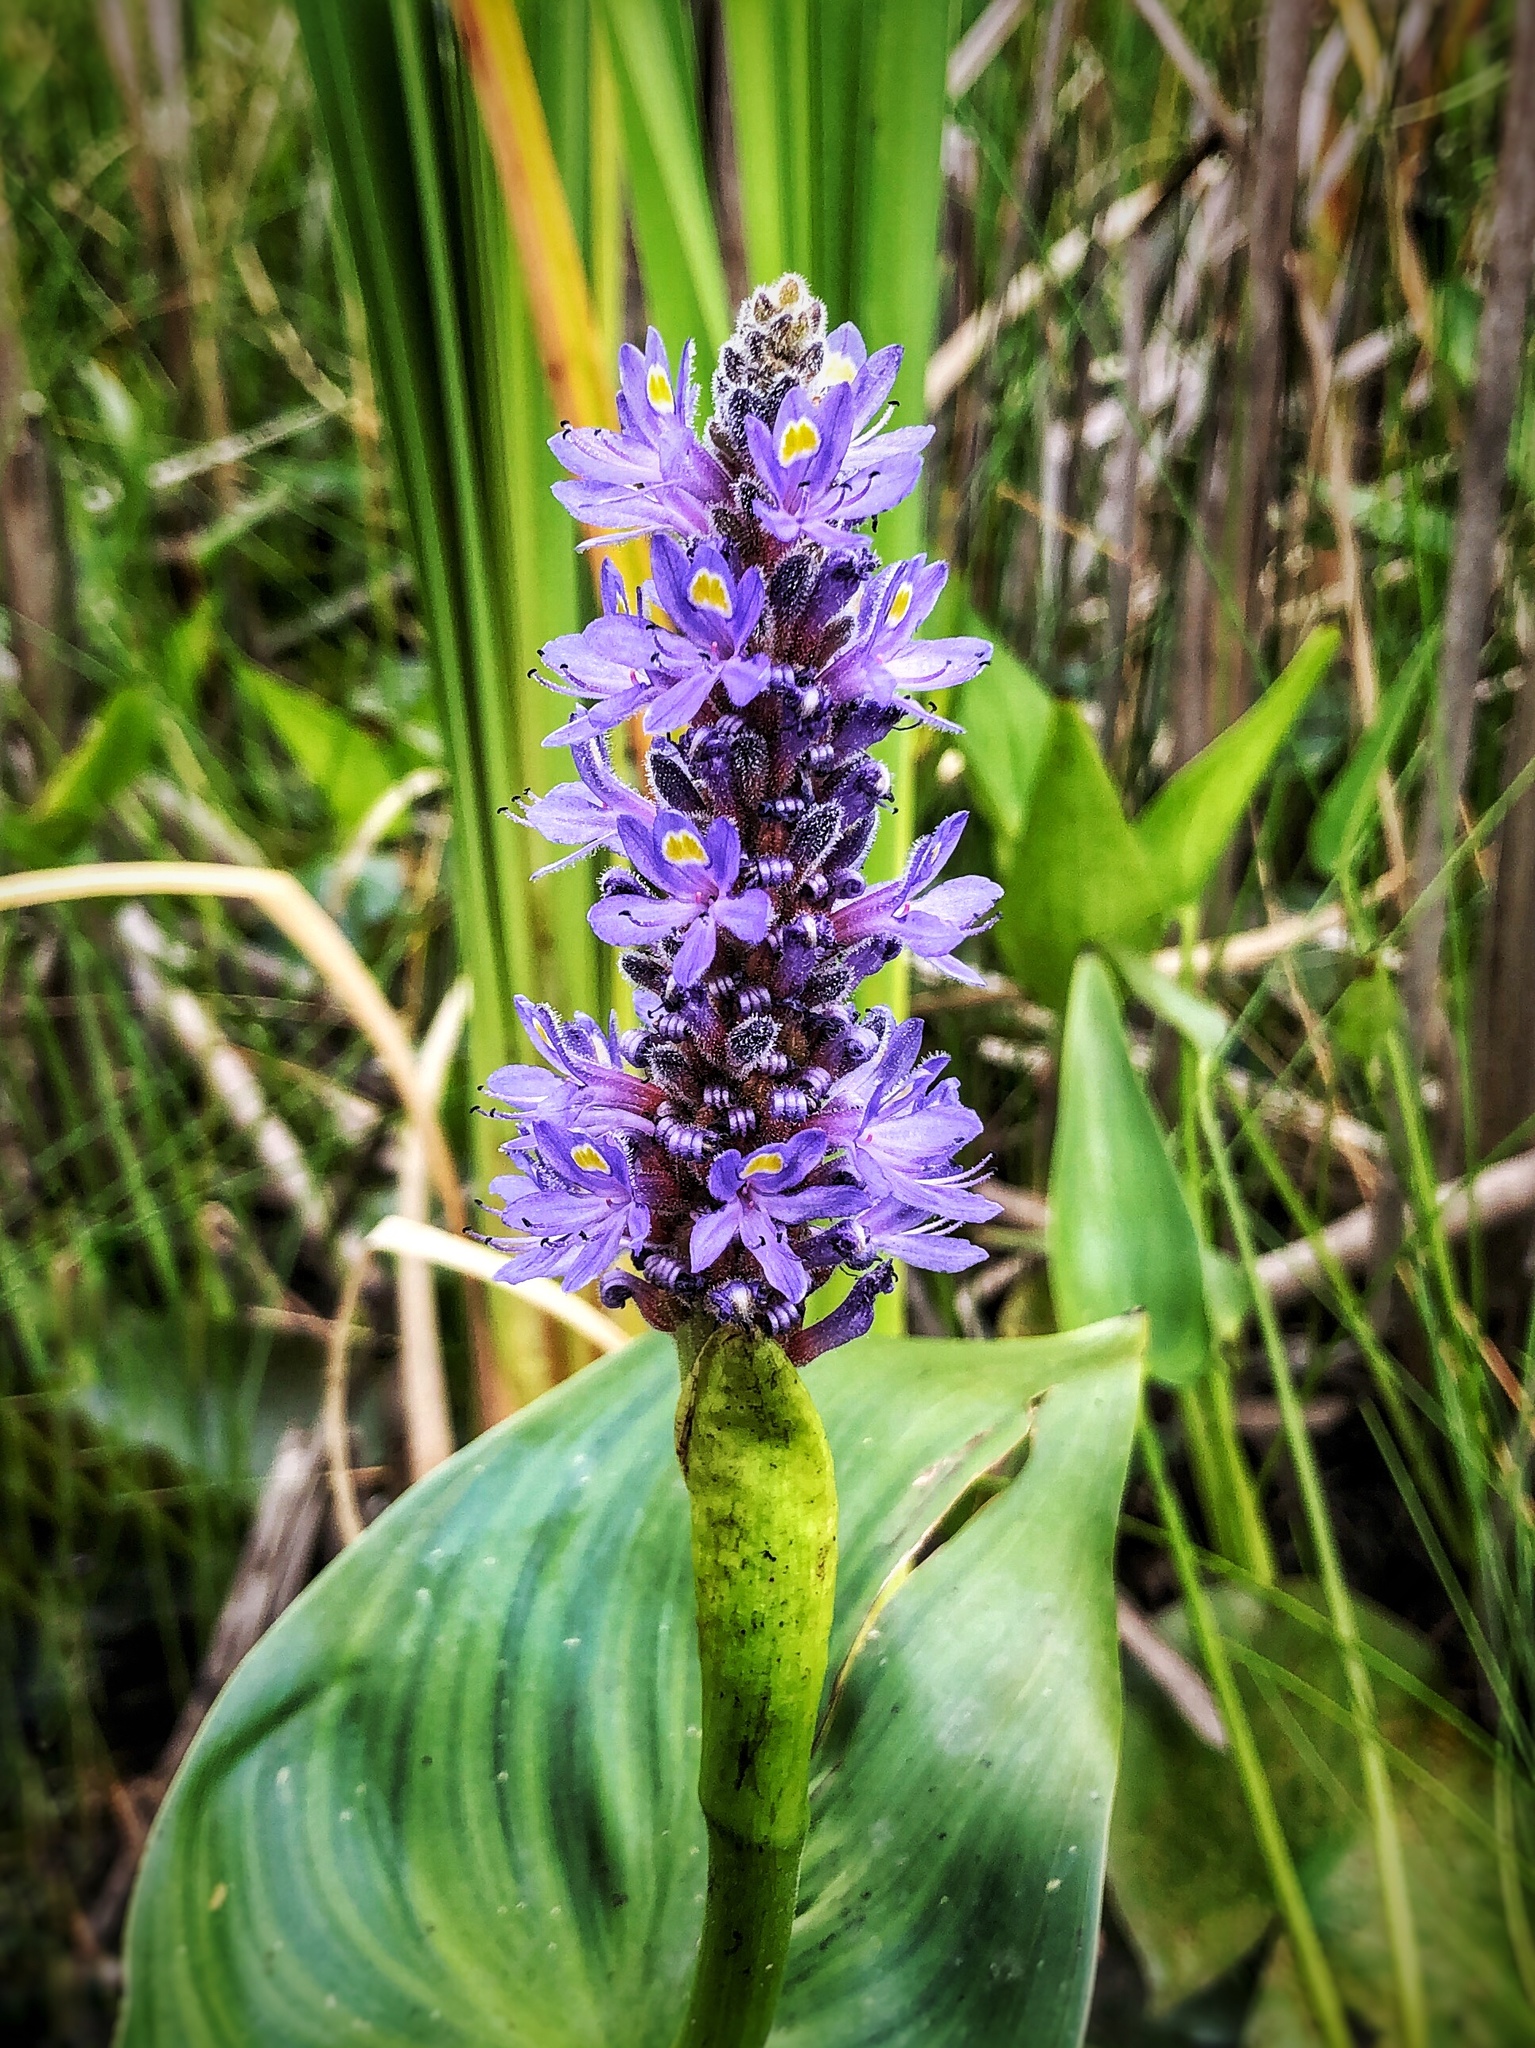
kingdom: Plantae
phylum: Tracheophyta
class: Liliopsida
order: Commelinales
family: Pontederiaceae
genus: Pontederia
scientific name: Pontederia cordata
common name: Pickerelweed
